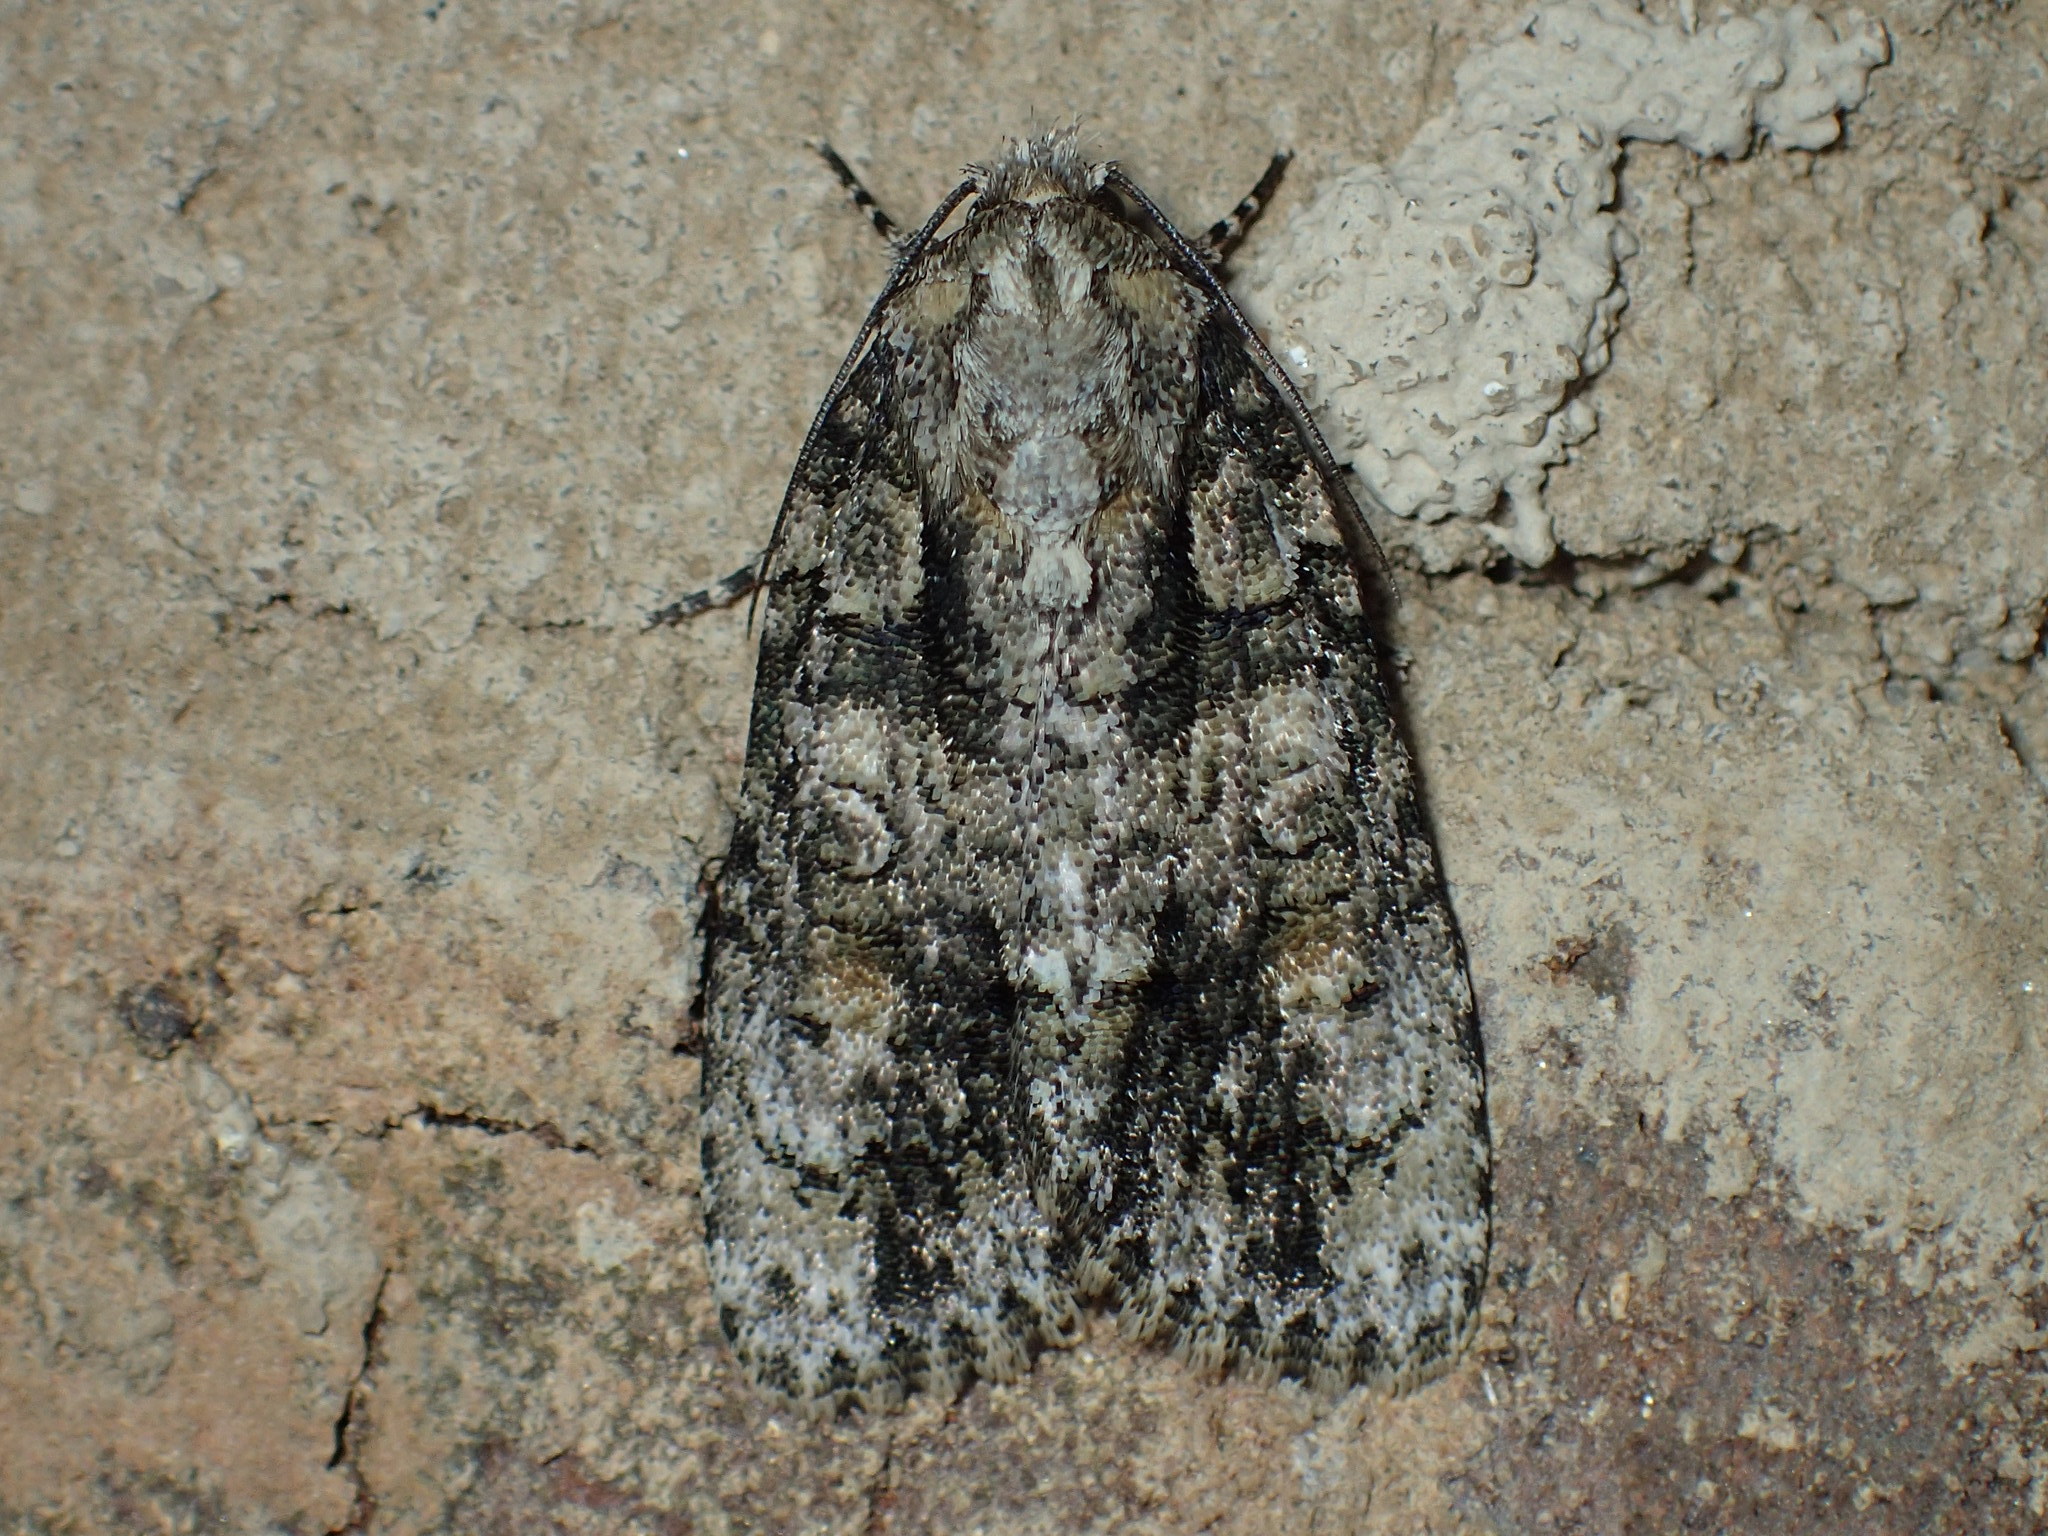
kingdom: Animalia
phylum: Arthropoda
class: Insecta
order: Lepidoptera
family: Noctuidae
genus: Acronicta
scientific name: Acronicta ovata
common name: Epauleted oak dagger
